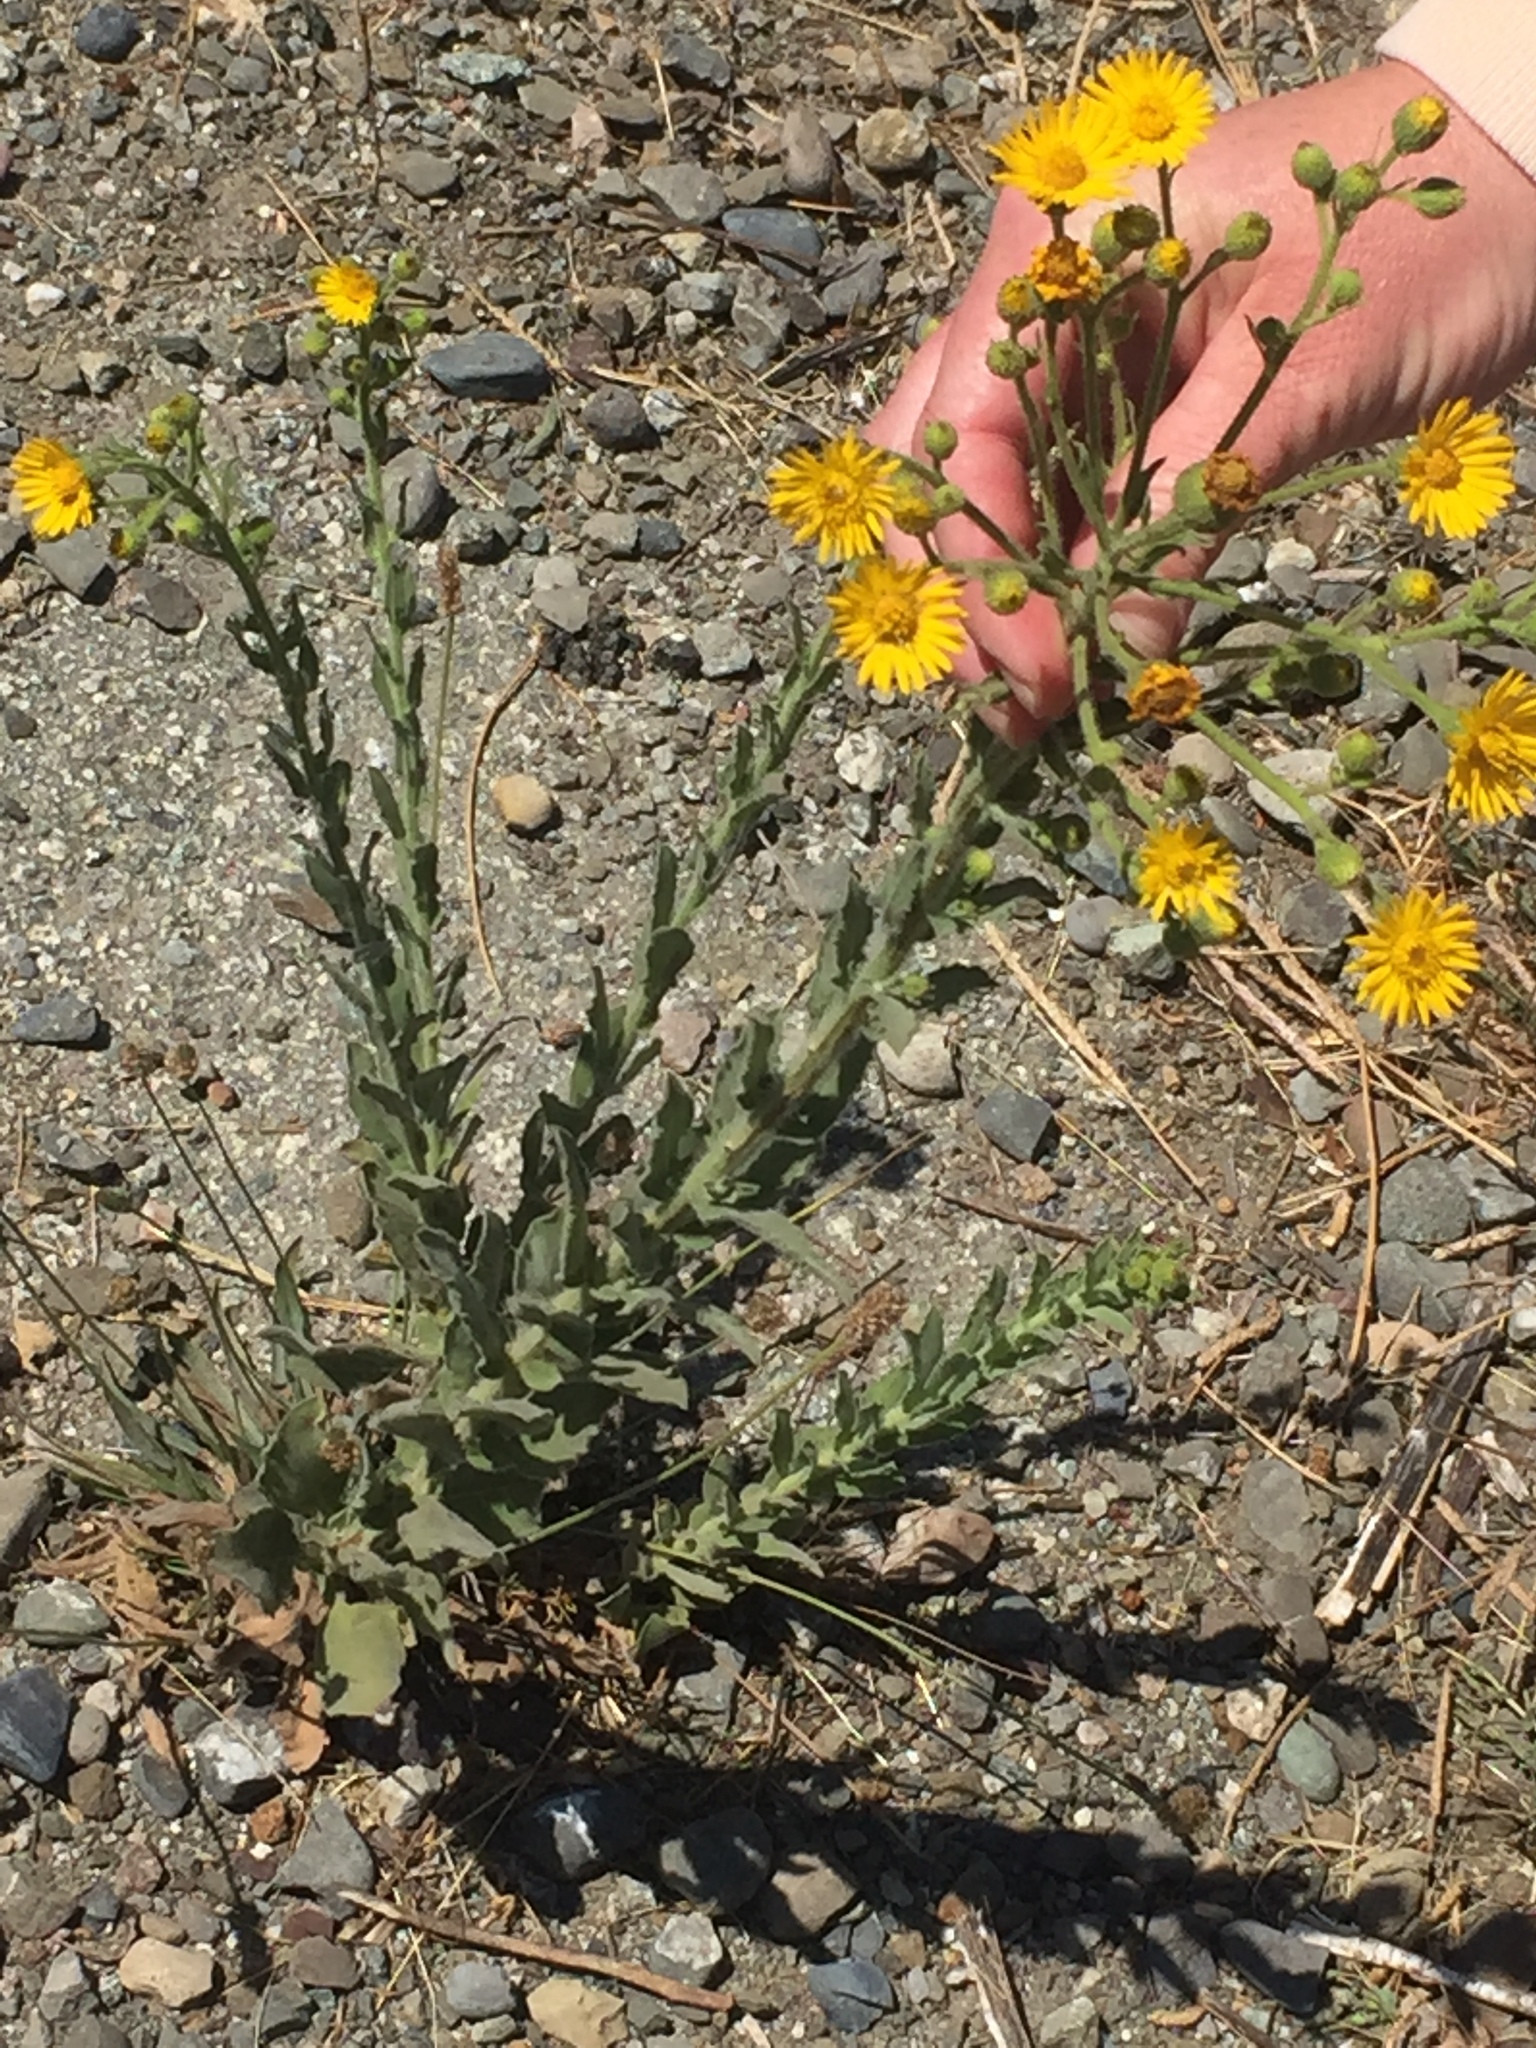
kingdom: Plantae
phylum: Tracheophyta
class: Magnoliopsida
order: Asterales
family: Asteraceae
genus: Heterotheca
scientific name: Heterotheca grandiflora
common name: Telegraphweed
